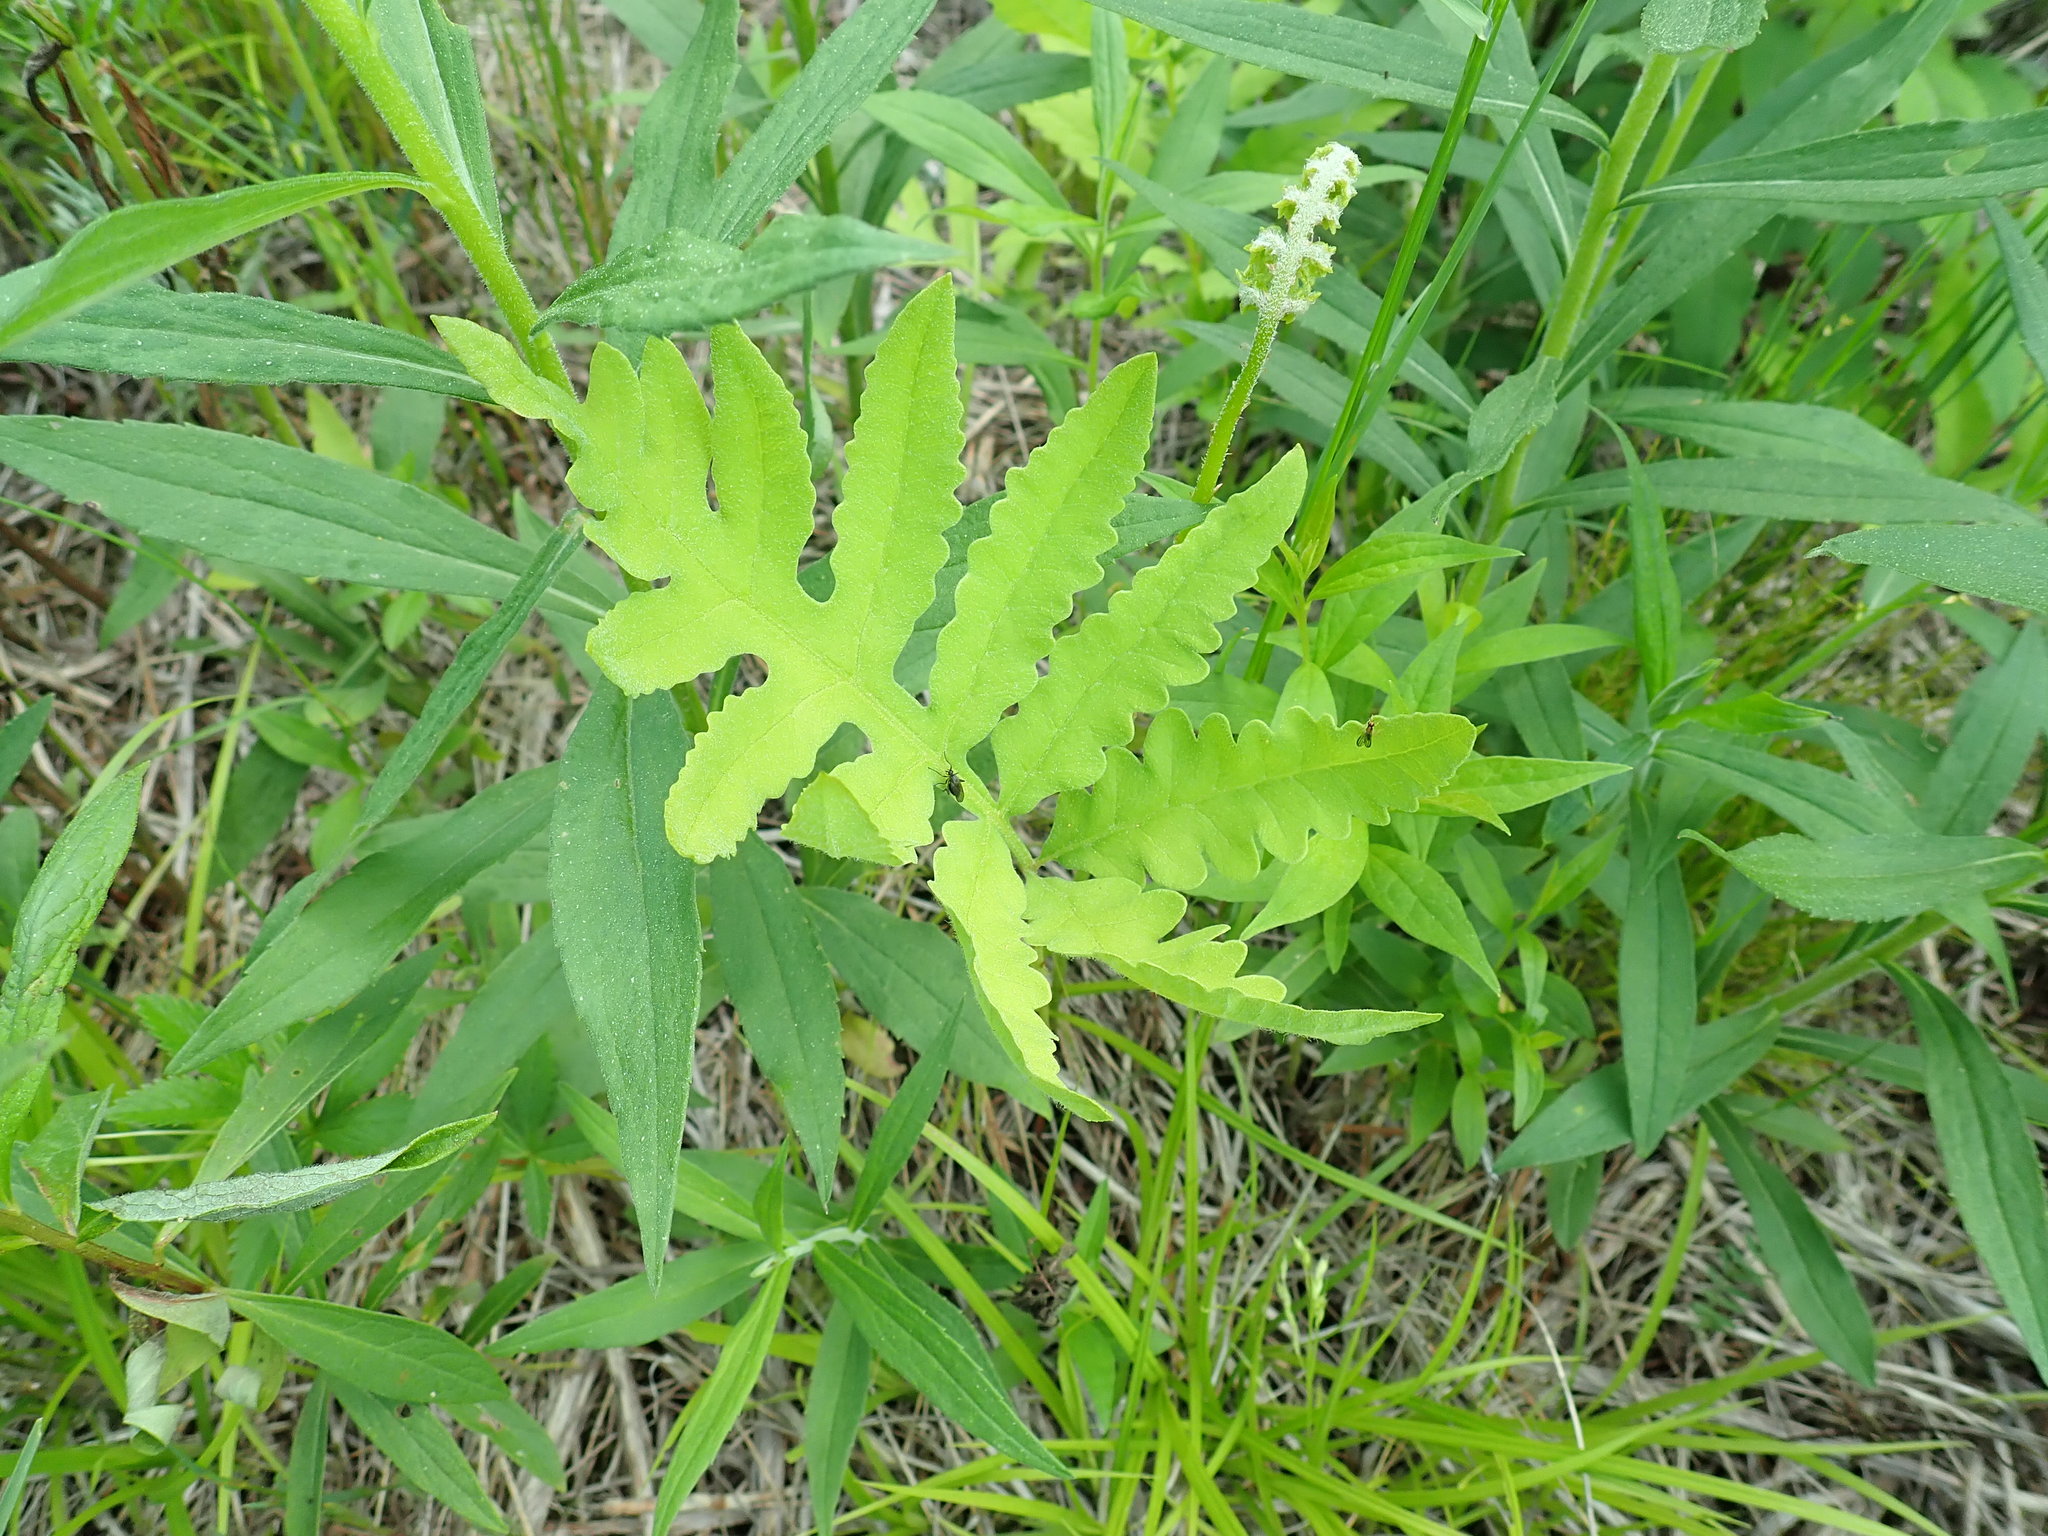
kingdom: Plantae
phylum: Tracheophyta
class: Polypodiopsida
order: Polypodiales
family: Onocleaceae
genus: Onoclea
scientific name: Onoclea sensibilis
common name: Sensitive fern
